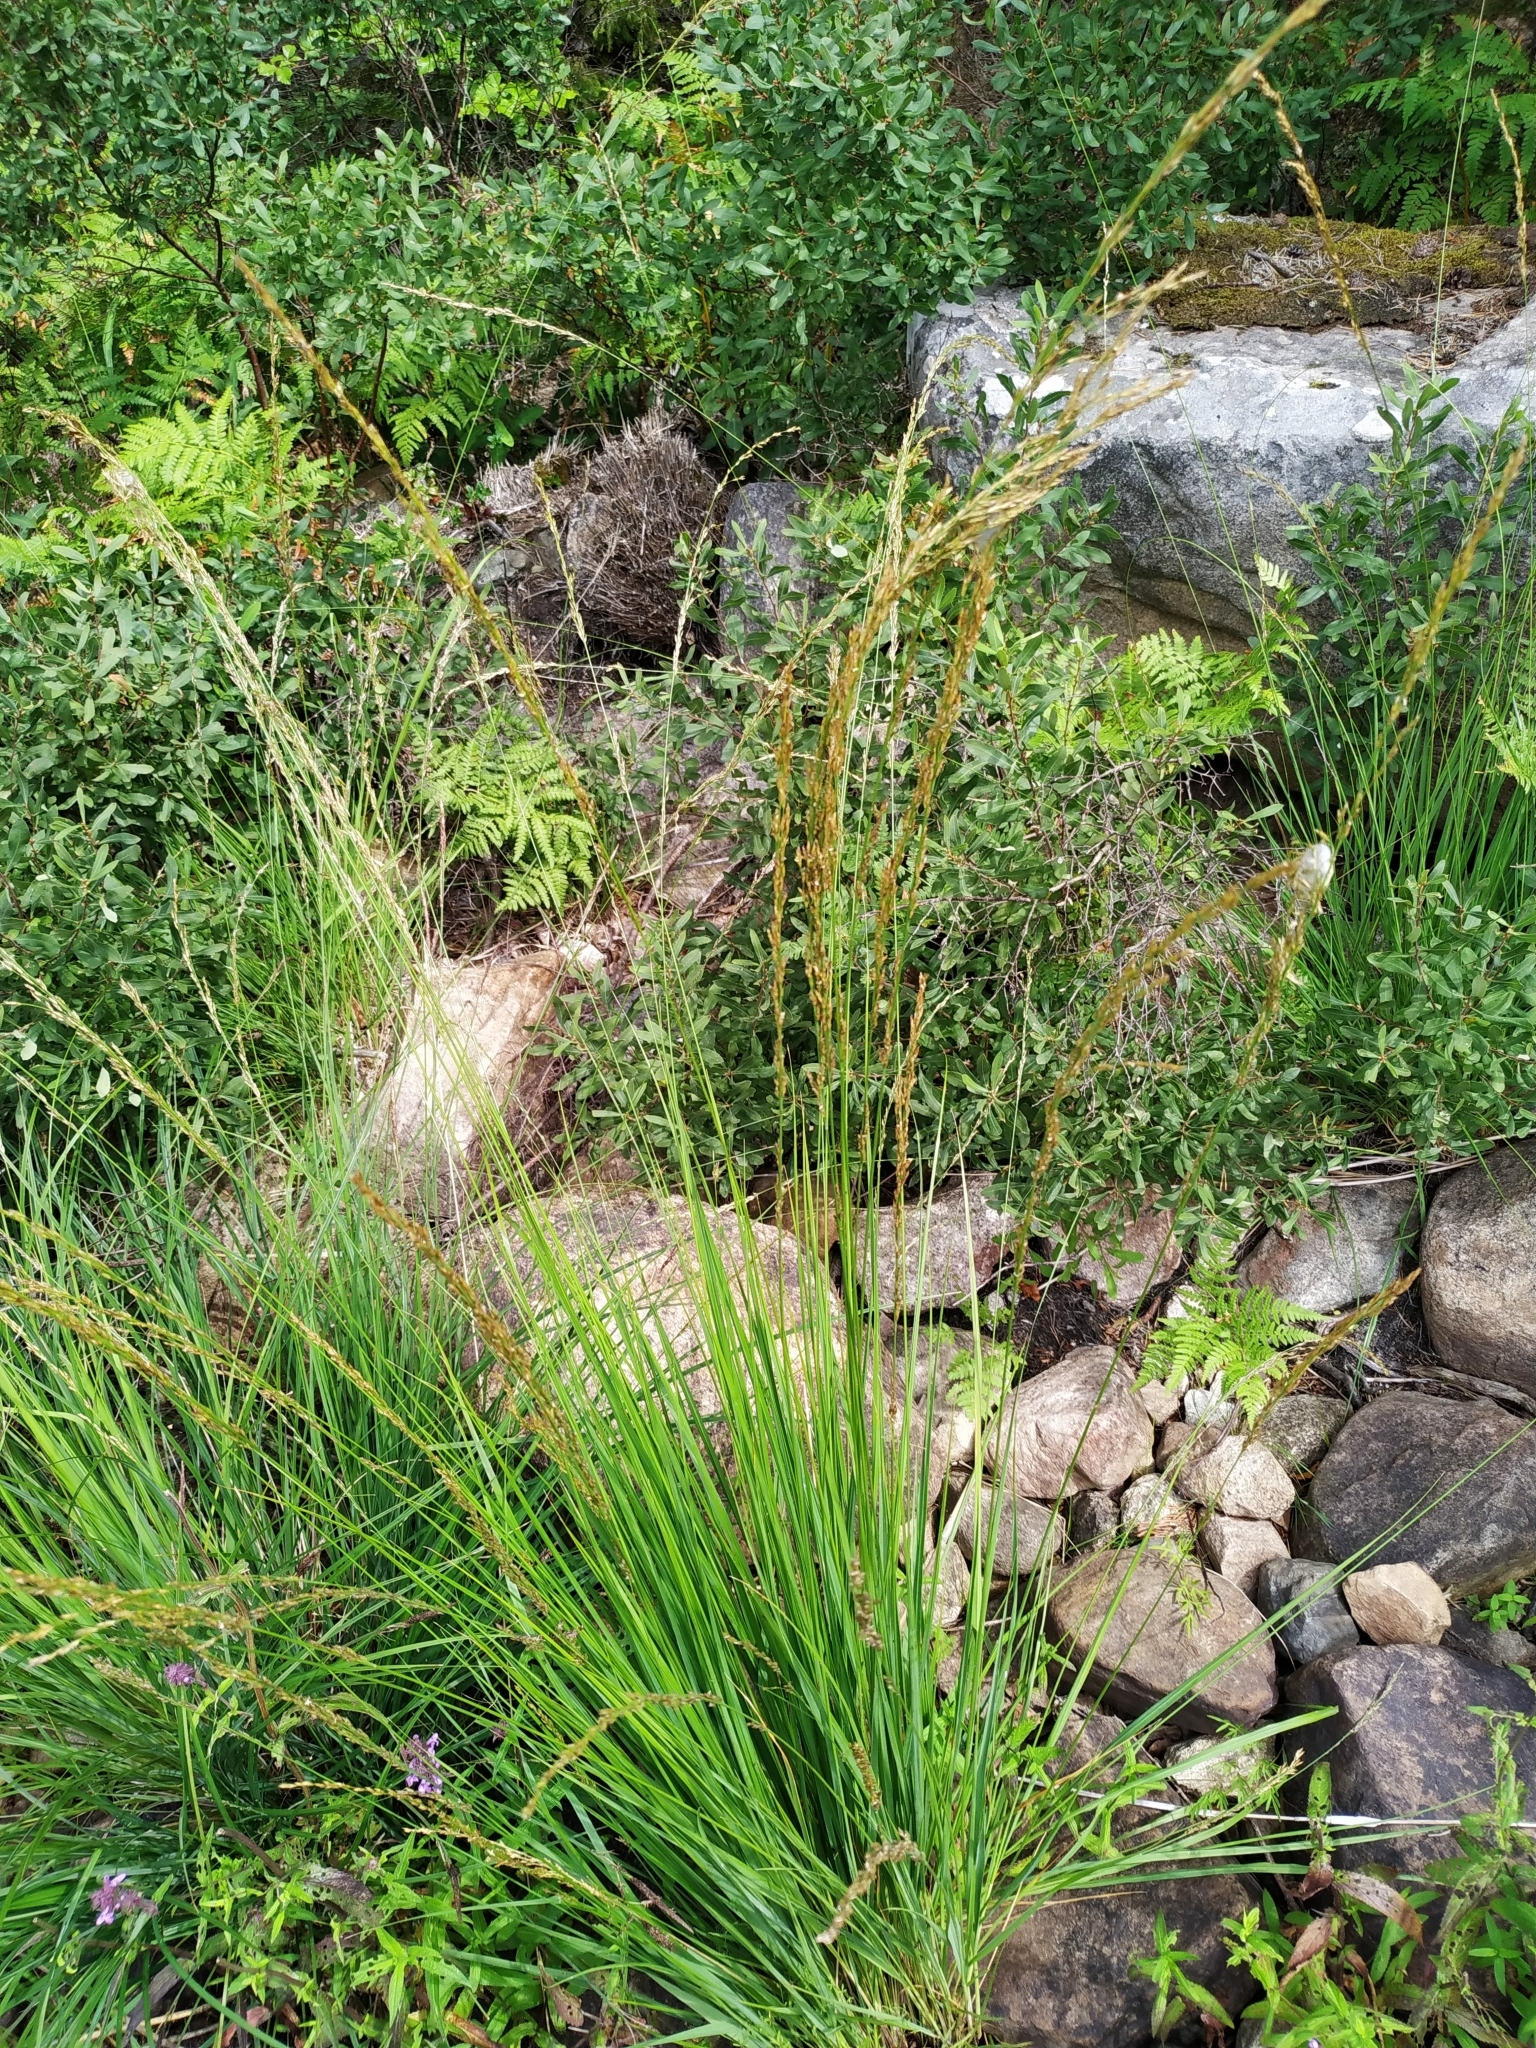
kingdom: Plantae
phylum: Tracheophyta
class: Liliopsida
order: Poales
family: Poaceae
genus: Molinia
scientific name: Molinia caerulea
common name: Purple moor-grass
